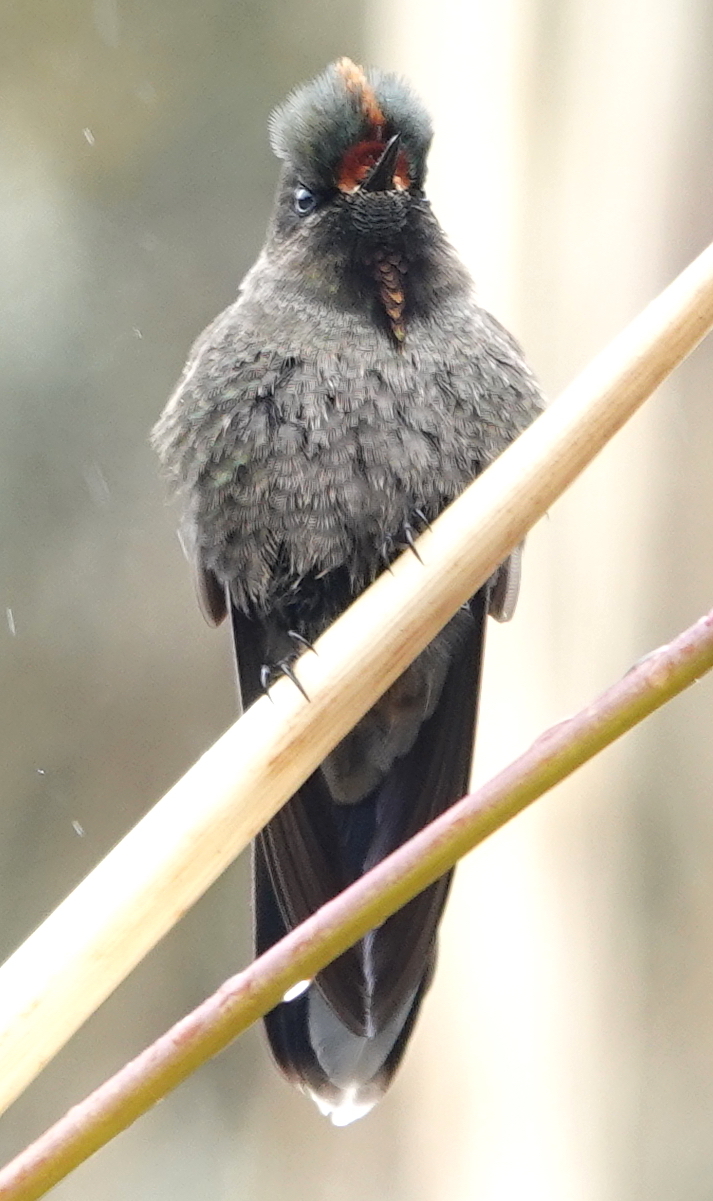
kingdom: Animalia
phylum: Chordata
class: Aves
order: Apodiformes
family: Trochilidae
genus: Chalcostigma
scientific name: Chalcostigma herrani
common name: Rainbow-bearded thornbill
